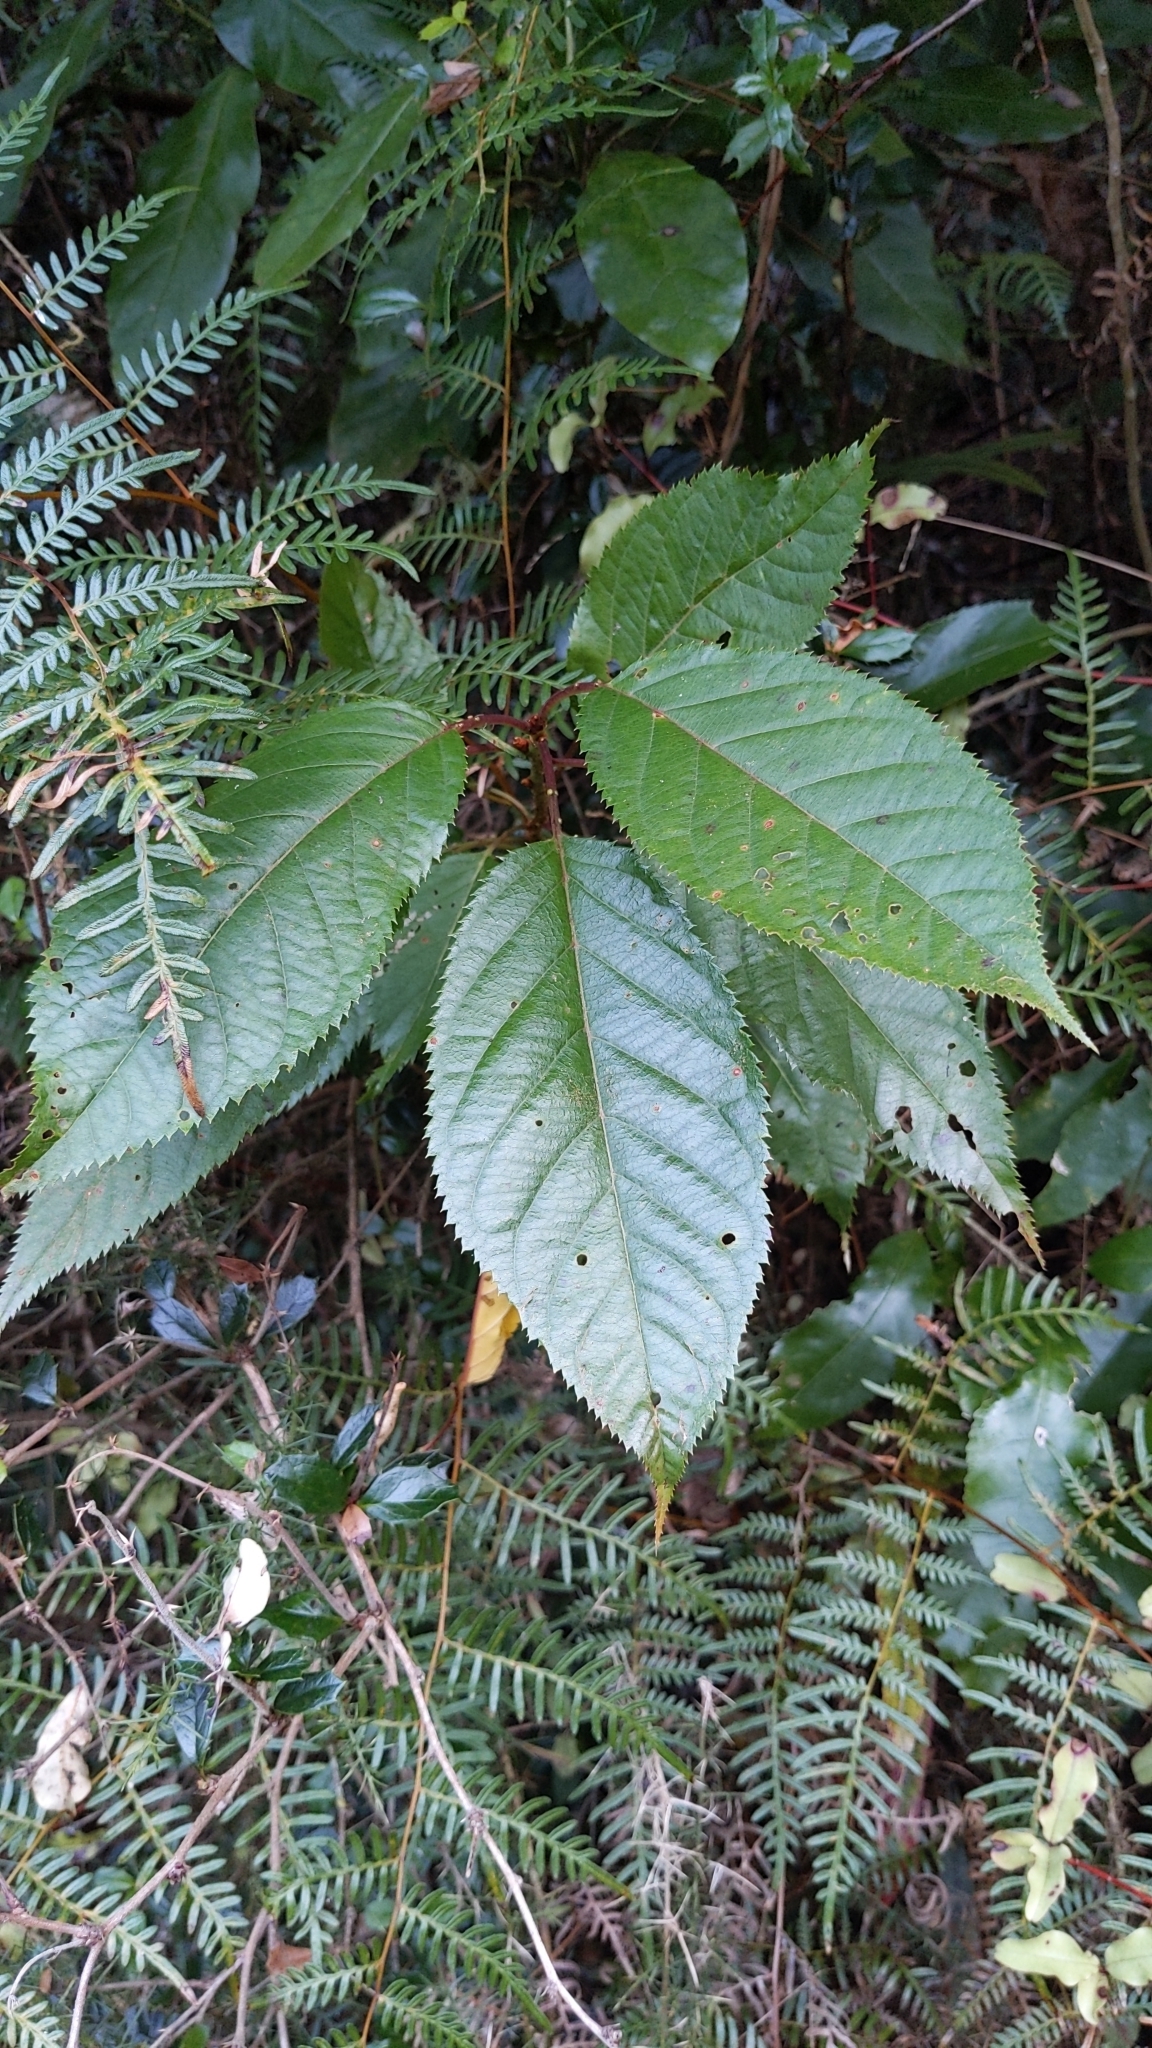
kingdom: Plantae
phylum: Tracheophyta
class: Magnoliopsida
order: Rosales
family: Rosaceae
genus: Prunus
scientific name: Prunus avium
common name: Sweet cherry
